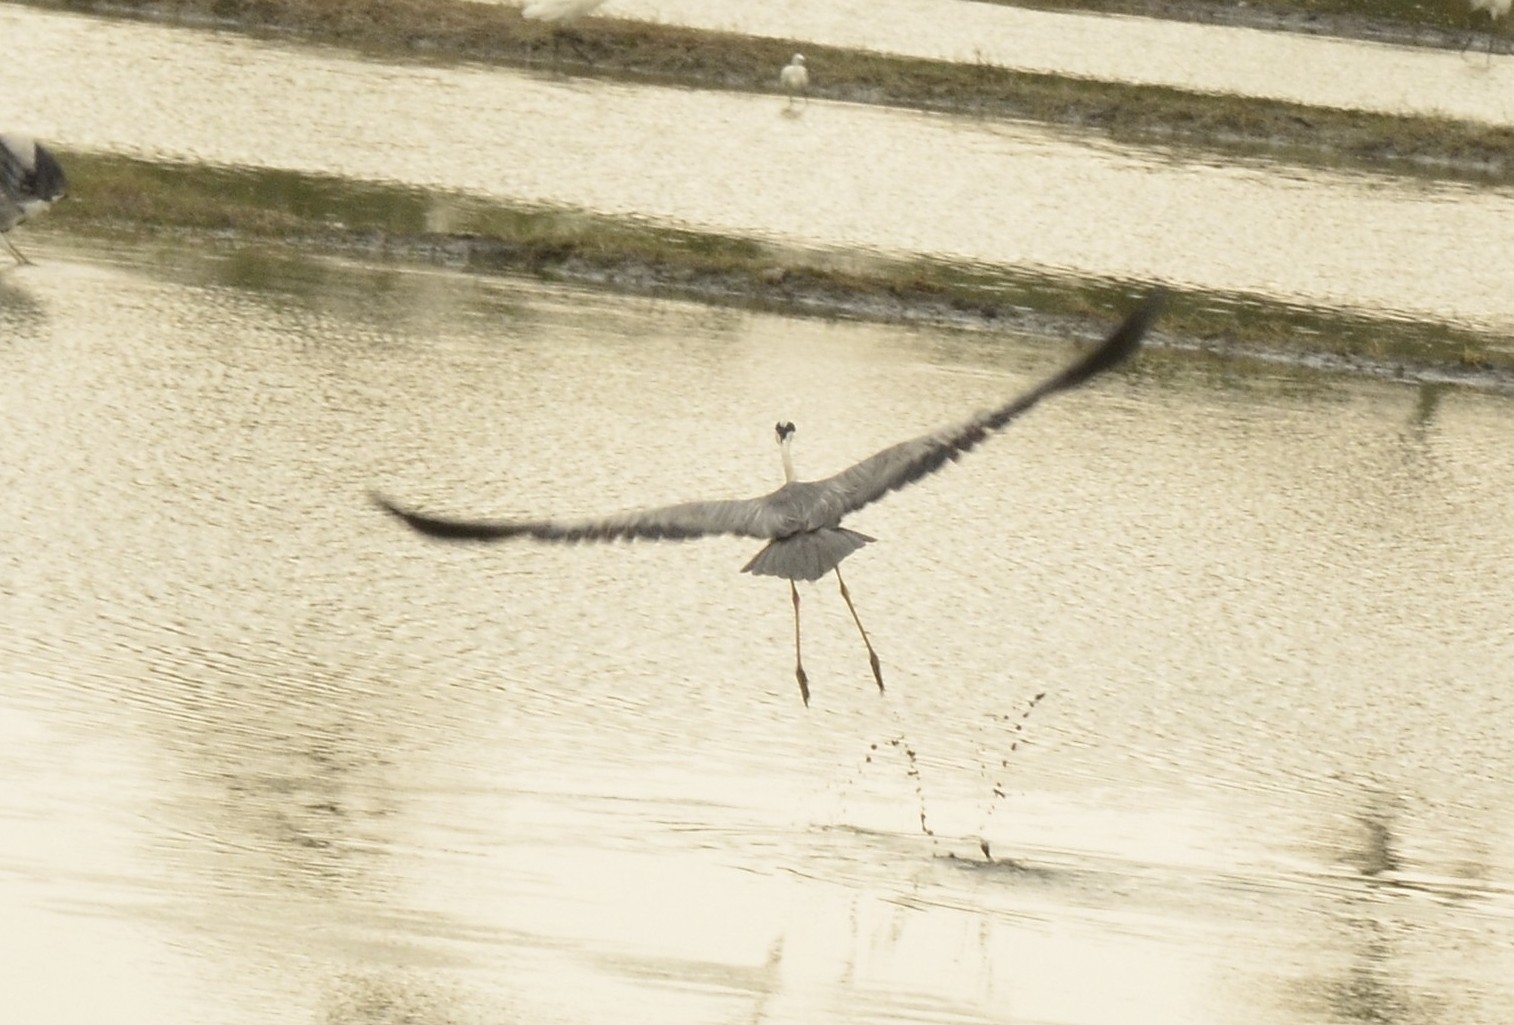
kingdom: Animalia
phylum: Chordata
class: Aves
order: Pelecaniformes
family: Ardeidae
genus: Ardea
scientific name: Ardea cinerea
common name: Grey heron
